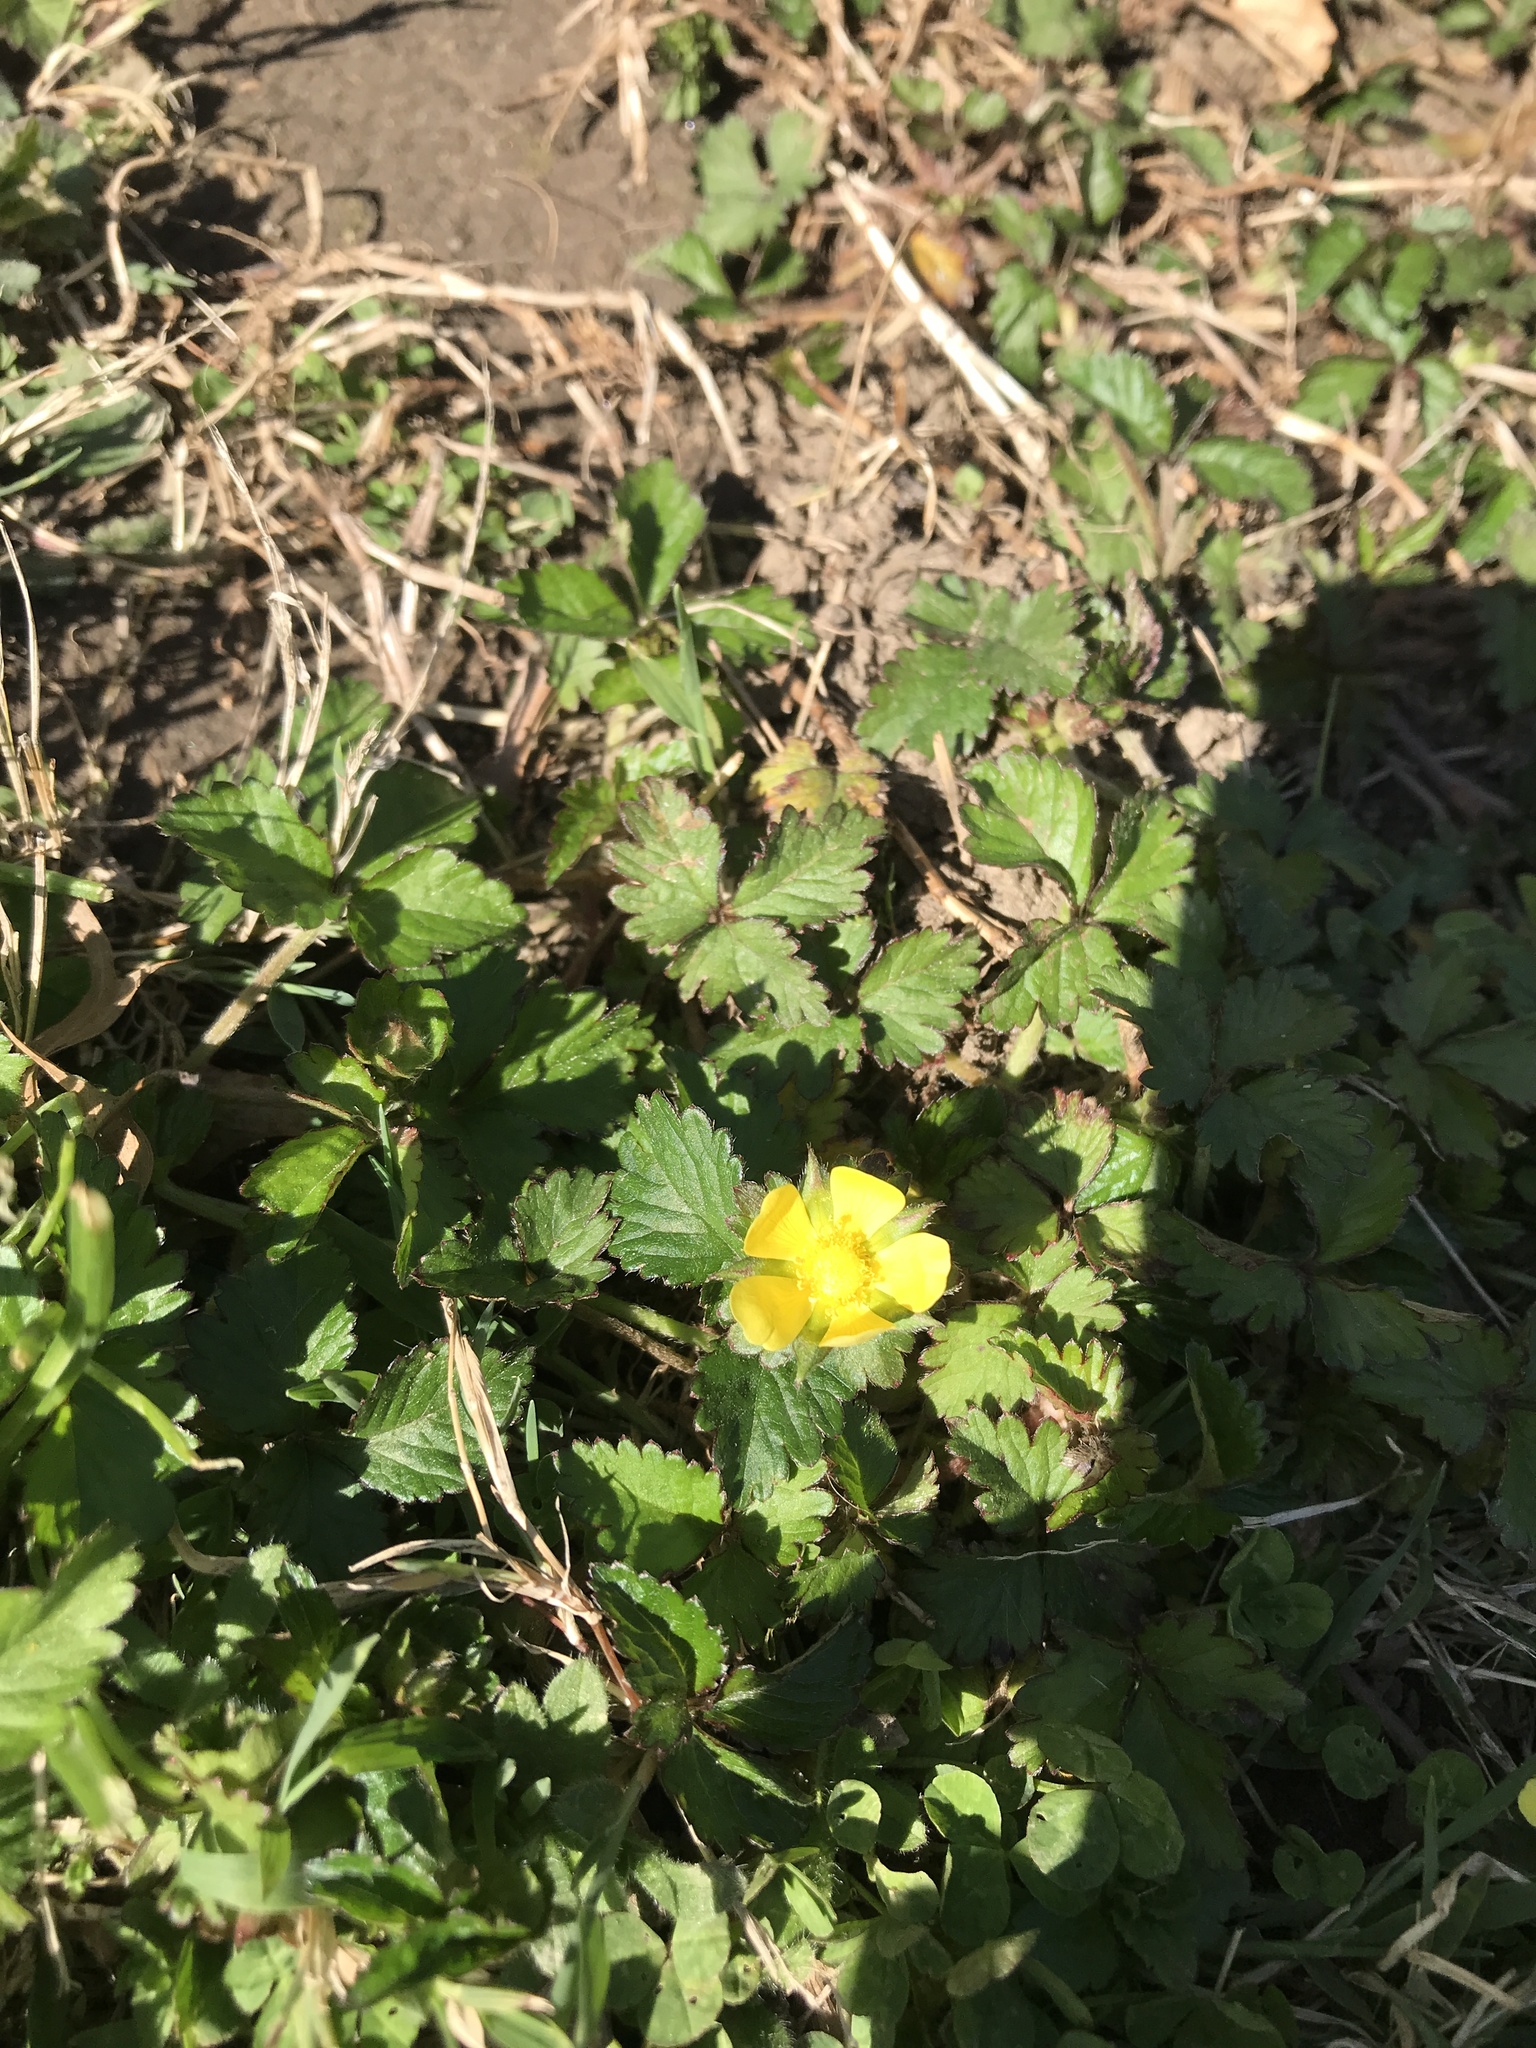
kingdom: Plantae
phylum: Tracheophyta
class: Magnoliopsida
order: Rosales
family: Rosaceae
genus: Potentilla
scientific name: Potentilla indica
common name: Yellow-flowered strawberry
